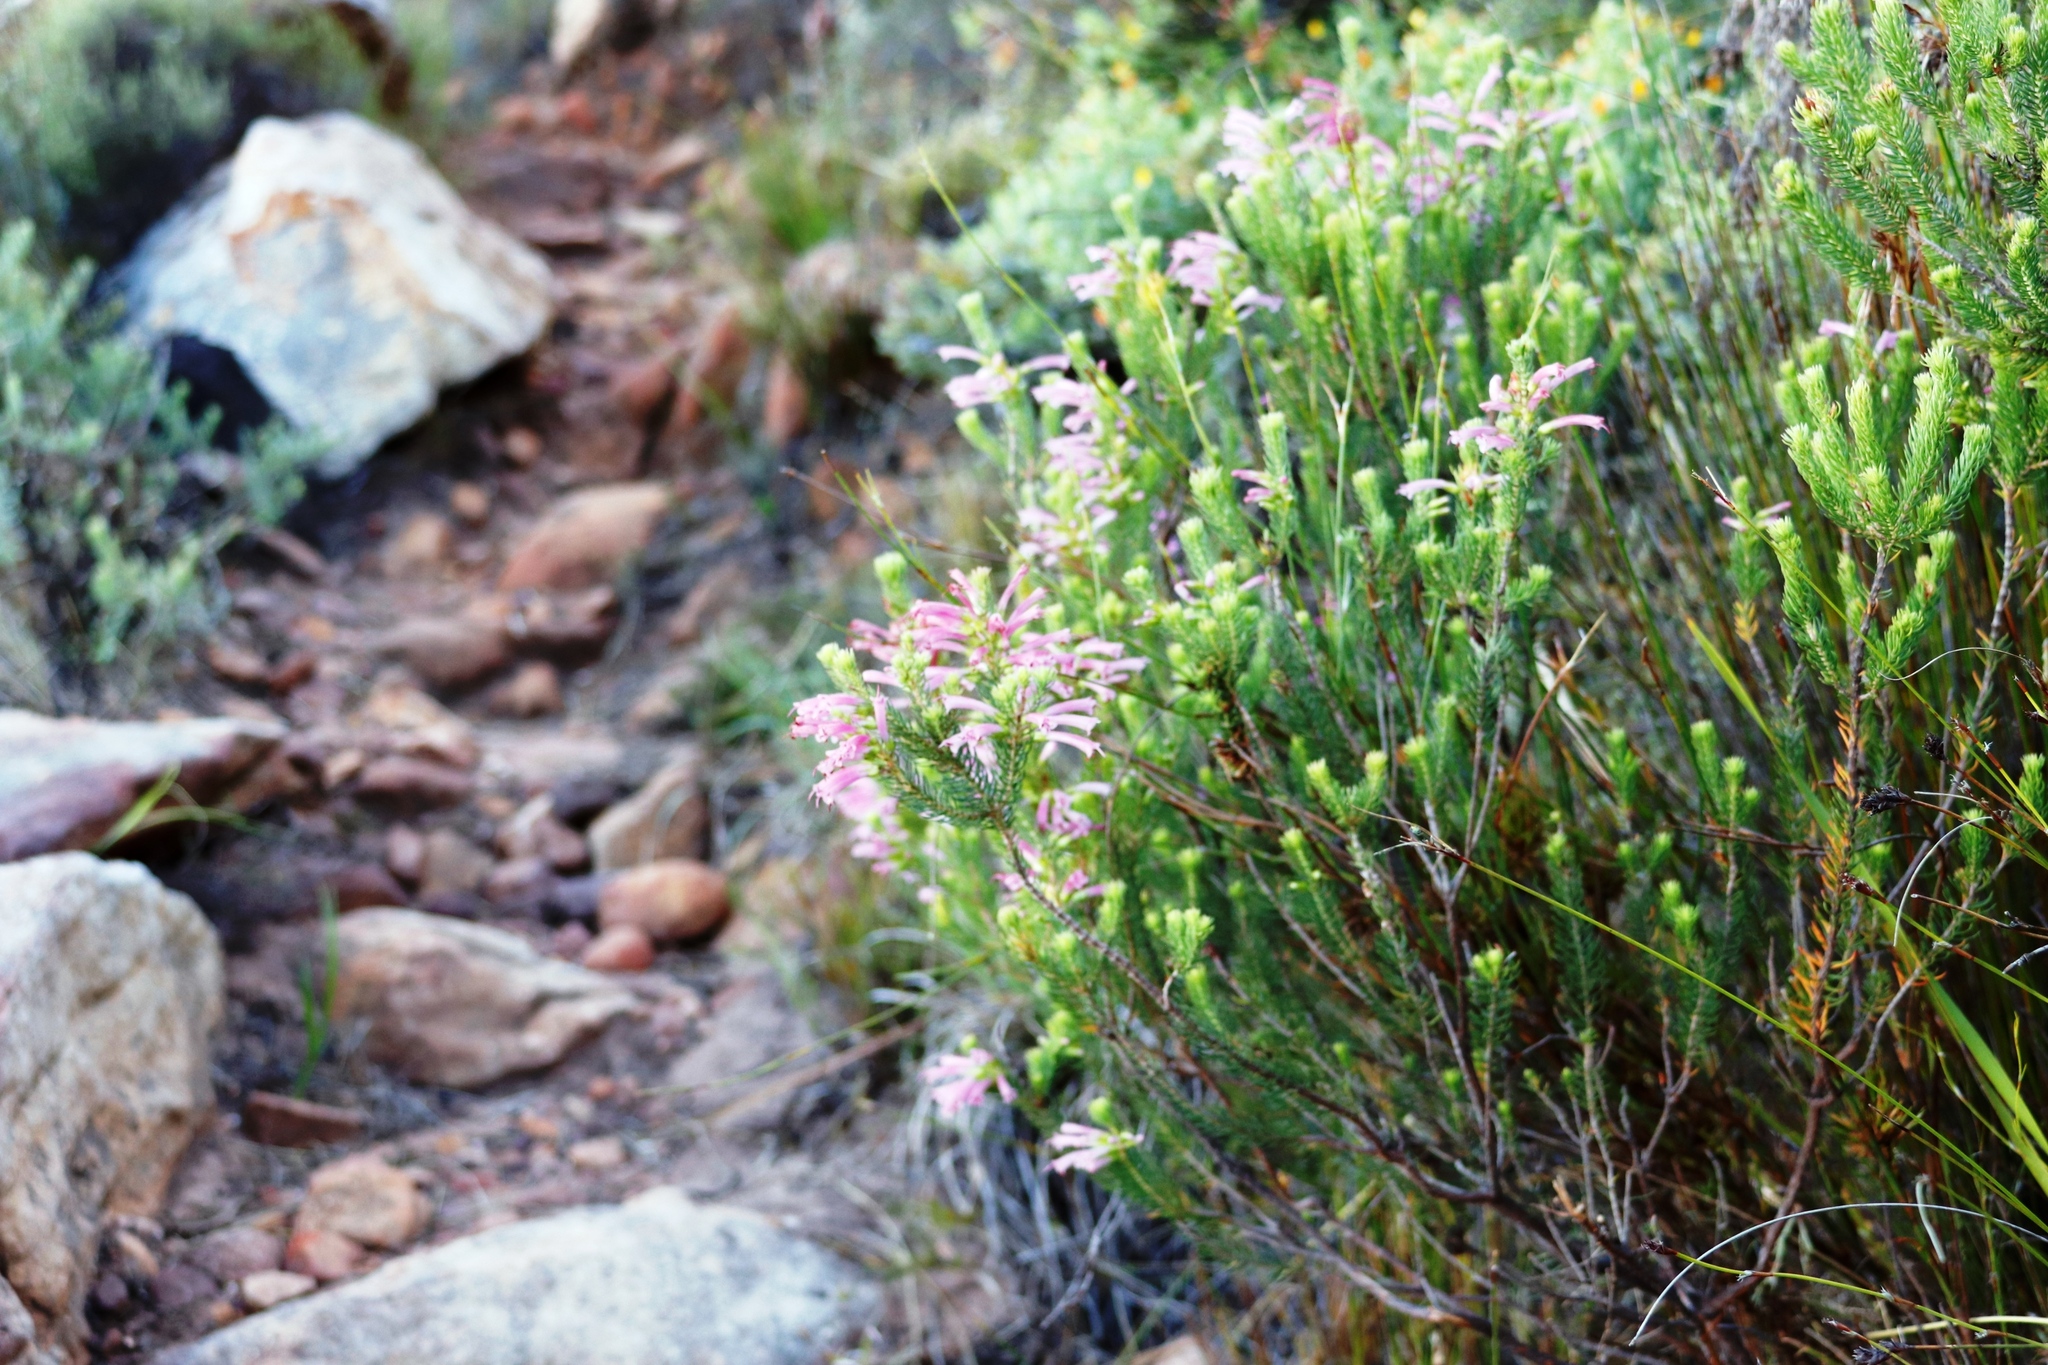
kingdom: Plantae
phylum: Tracheophyta
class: Magnoliopsida
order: Ericales
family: Ericaceae
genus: Erica
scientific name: Erica abietina
